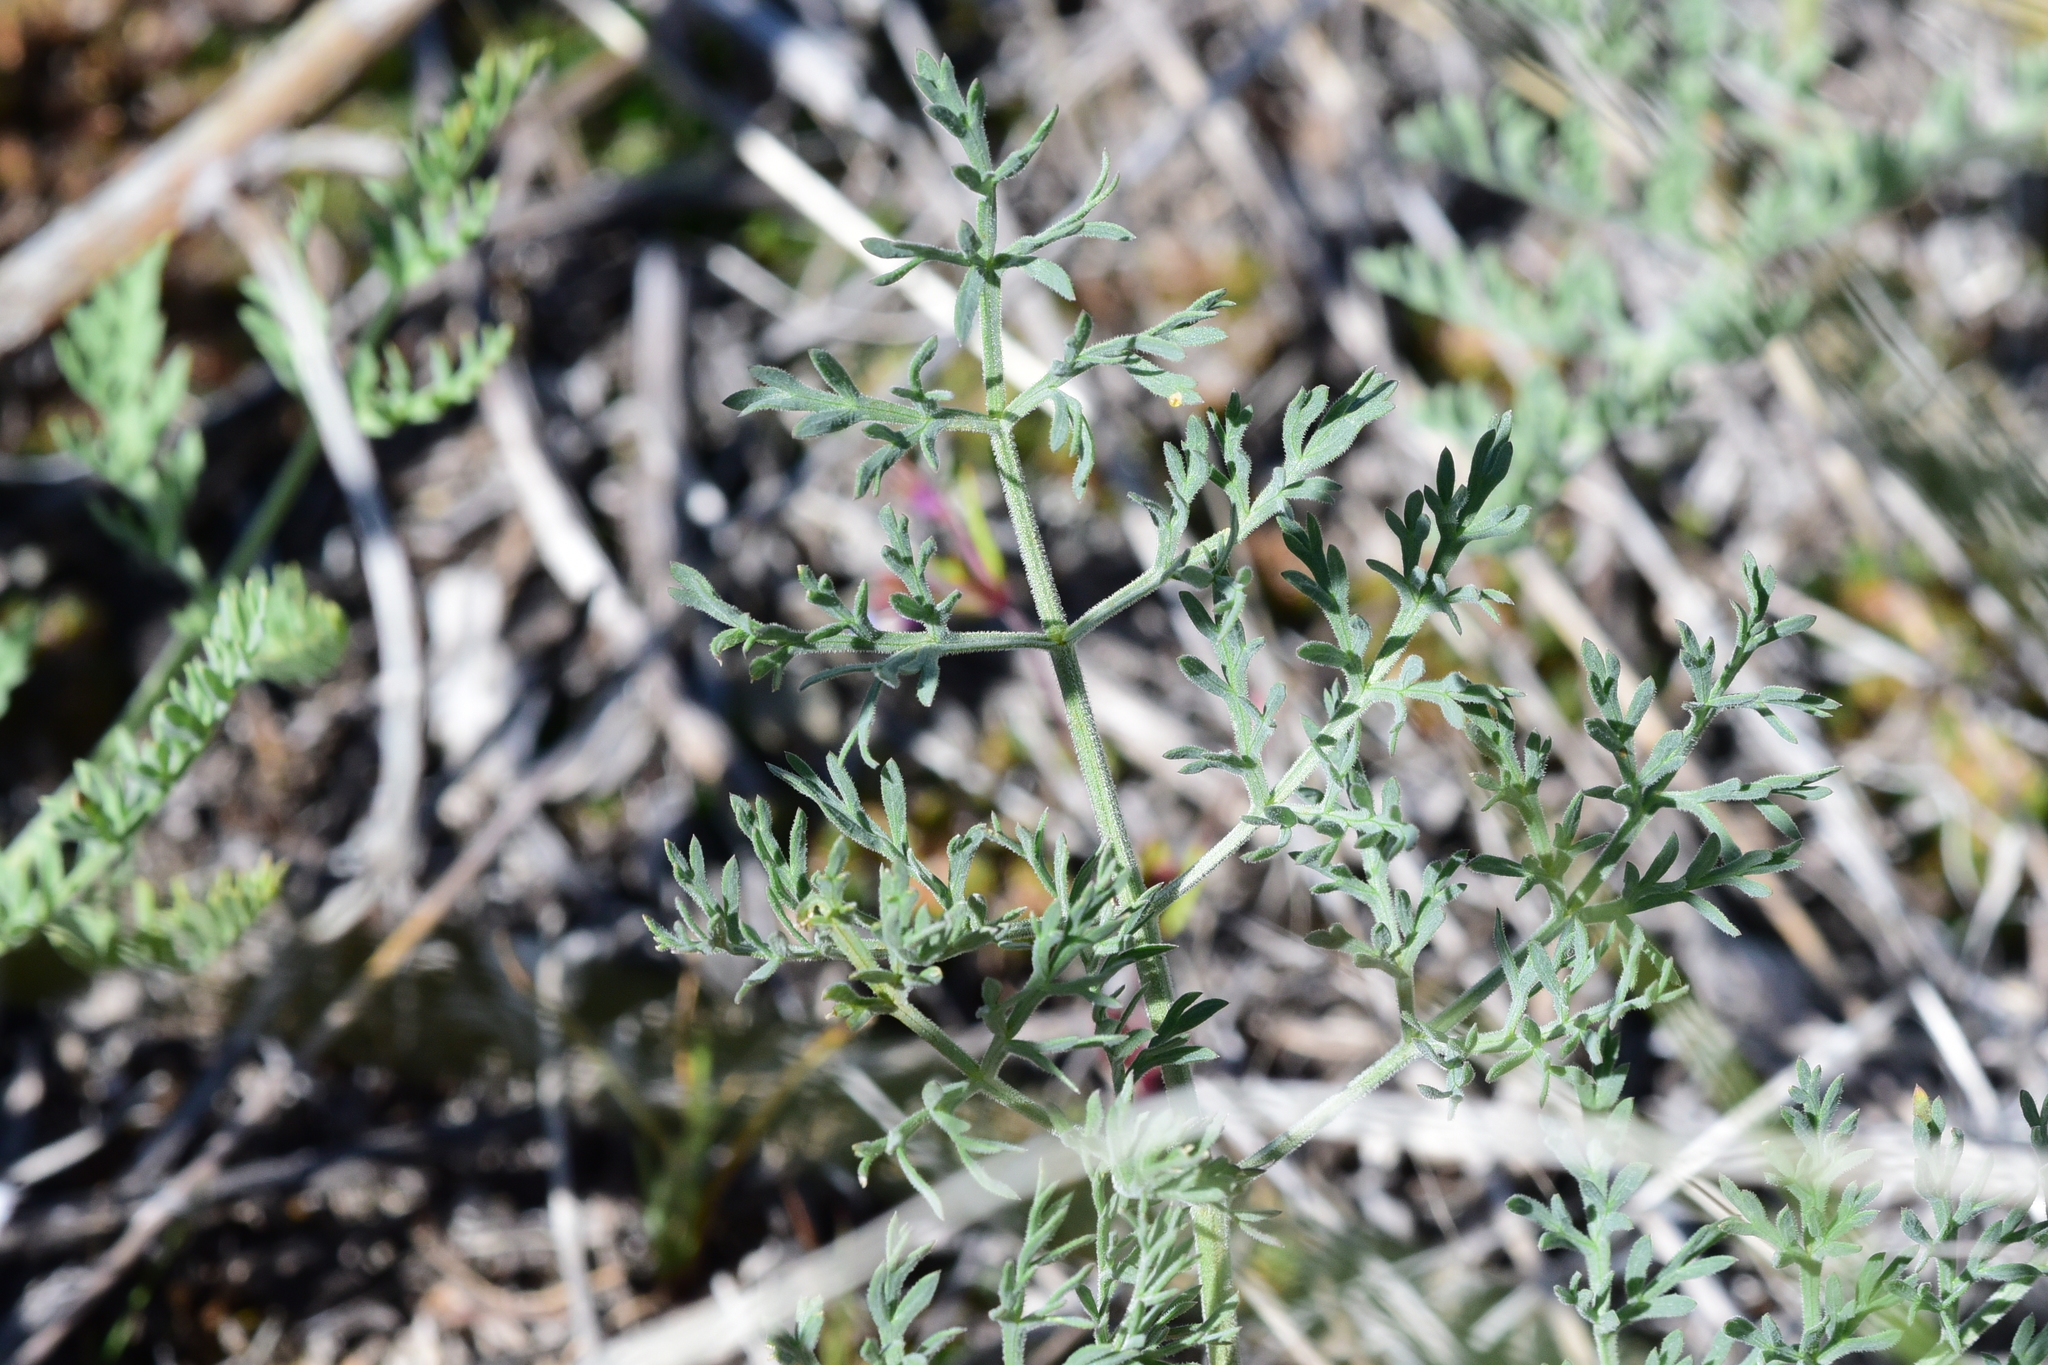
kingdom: Plantae
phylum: Tracheophyta
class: Magnoliopsida
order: Apiales
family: Apiaceae
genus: Lomatium
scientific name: Lomatium macrocarpum
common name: Big-seed biscuitroot
